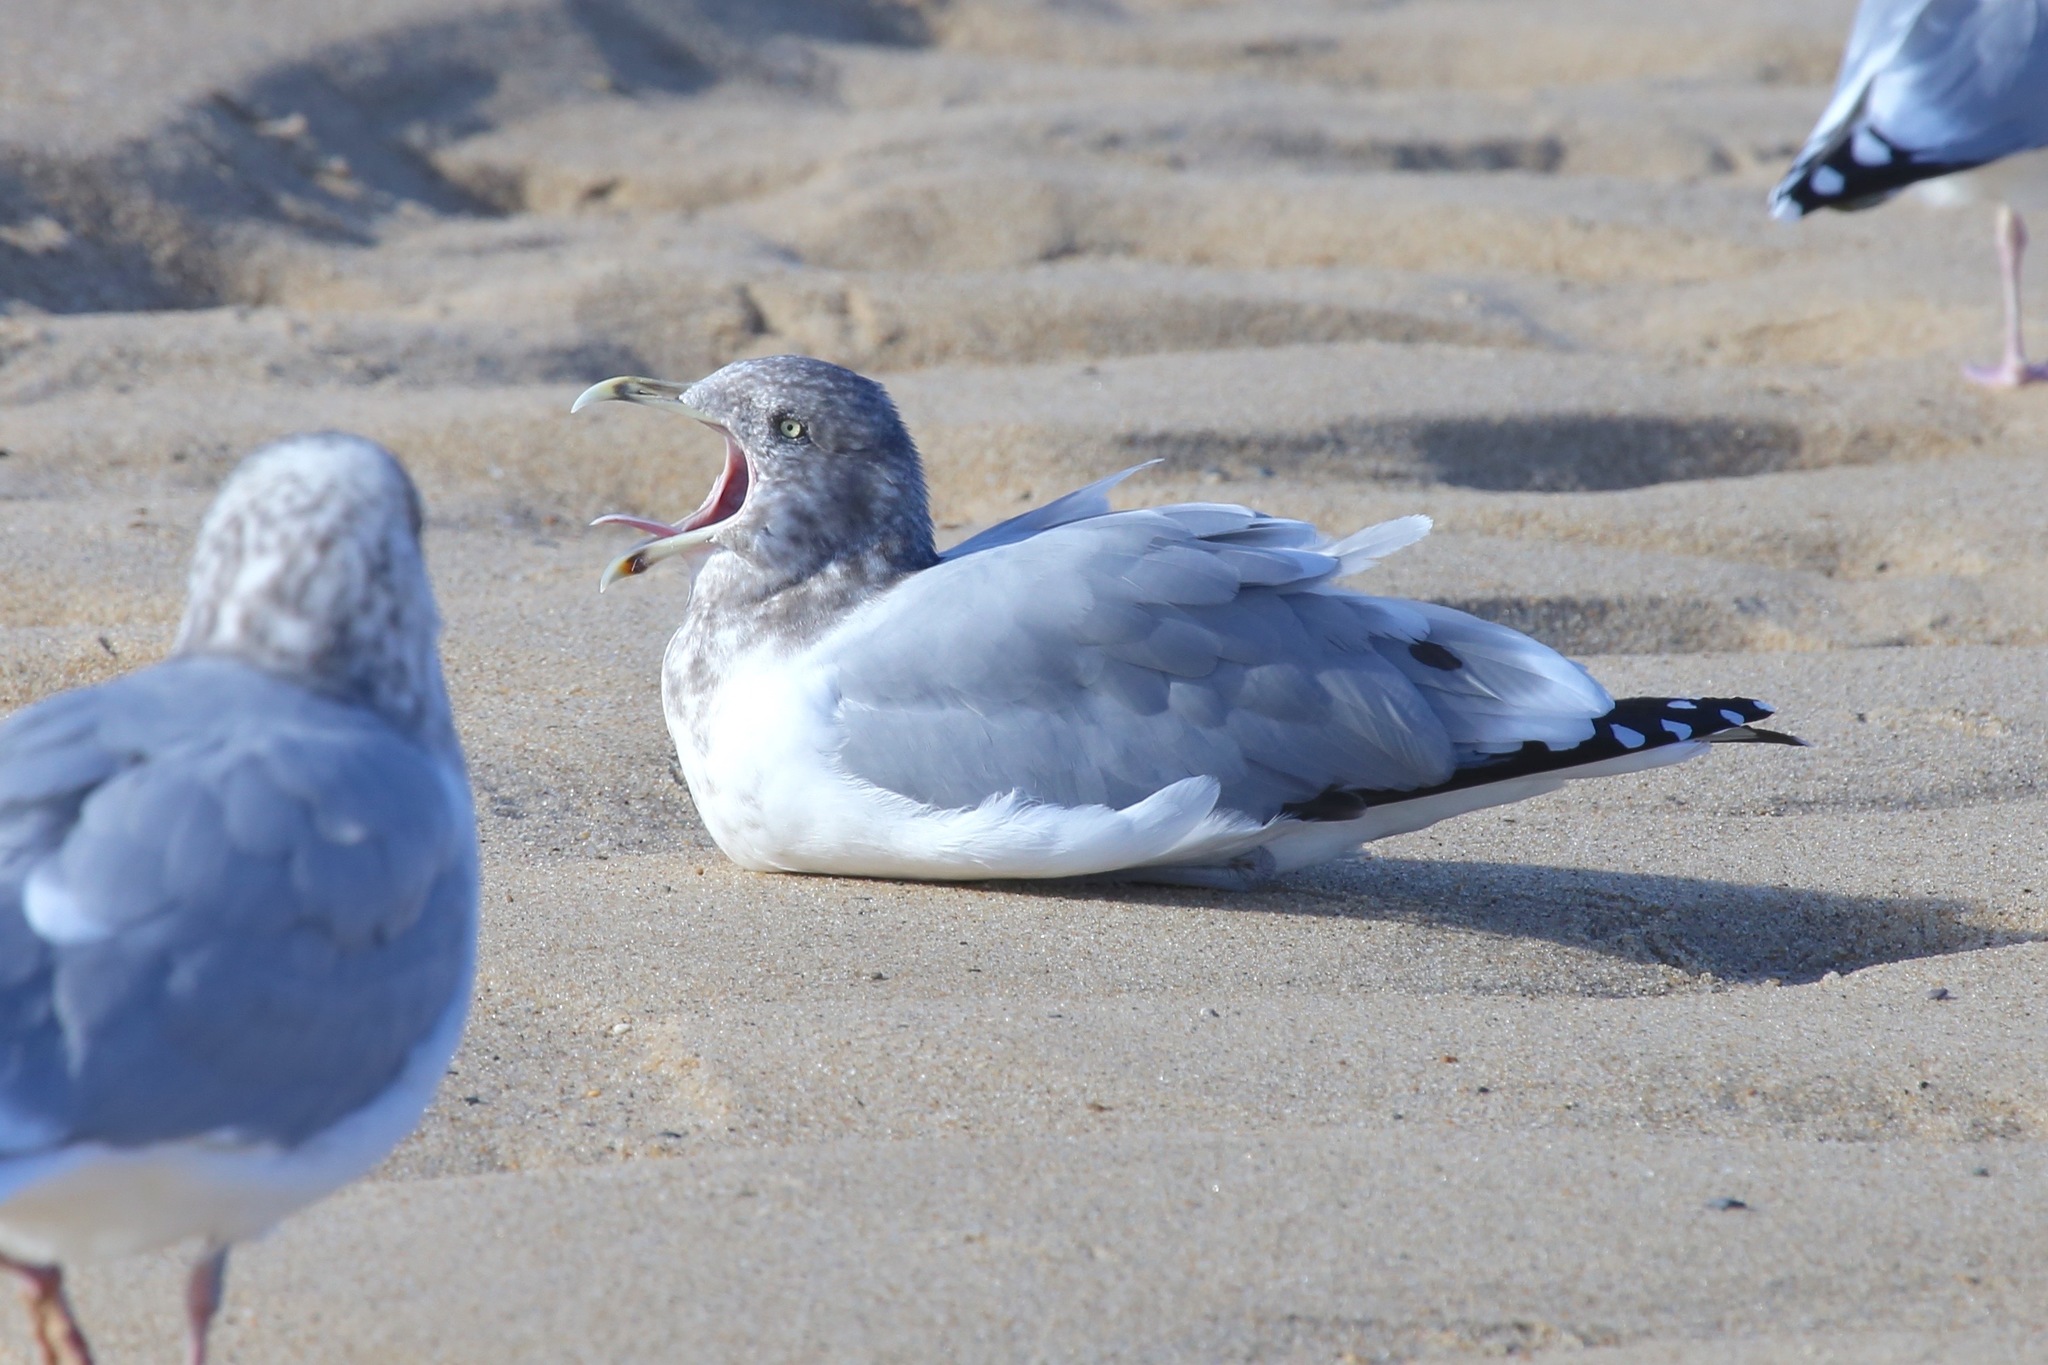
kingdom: Animalia
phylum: Chordata
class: Aves
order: Charadriiformes
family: Laridae
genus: Larus
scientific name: Larus argentatus
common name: Herring gull
